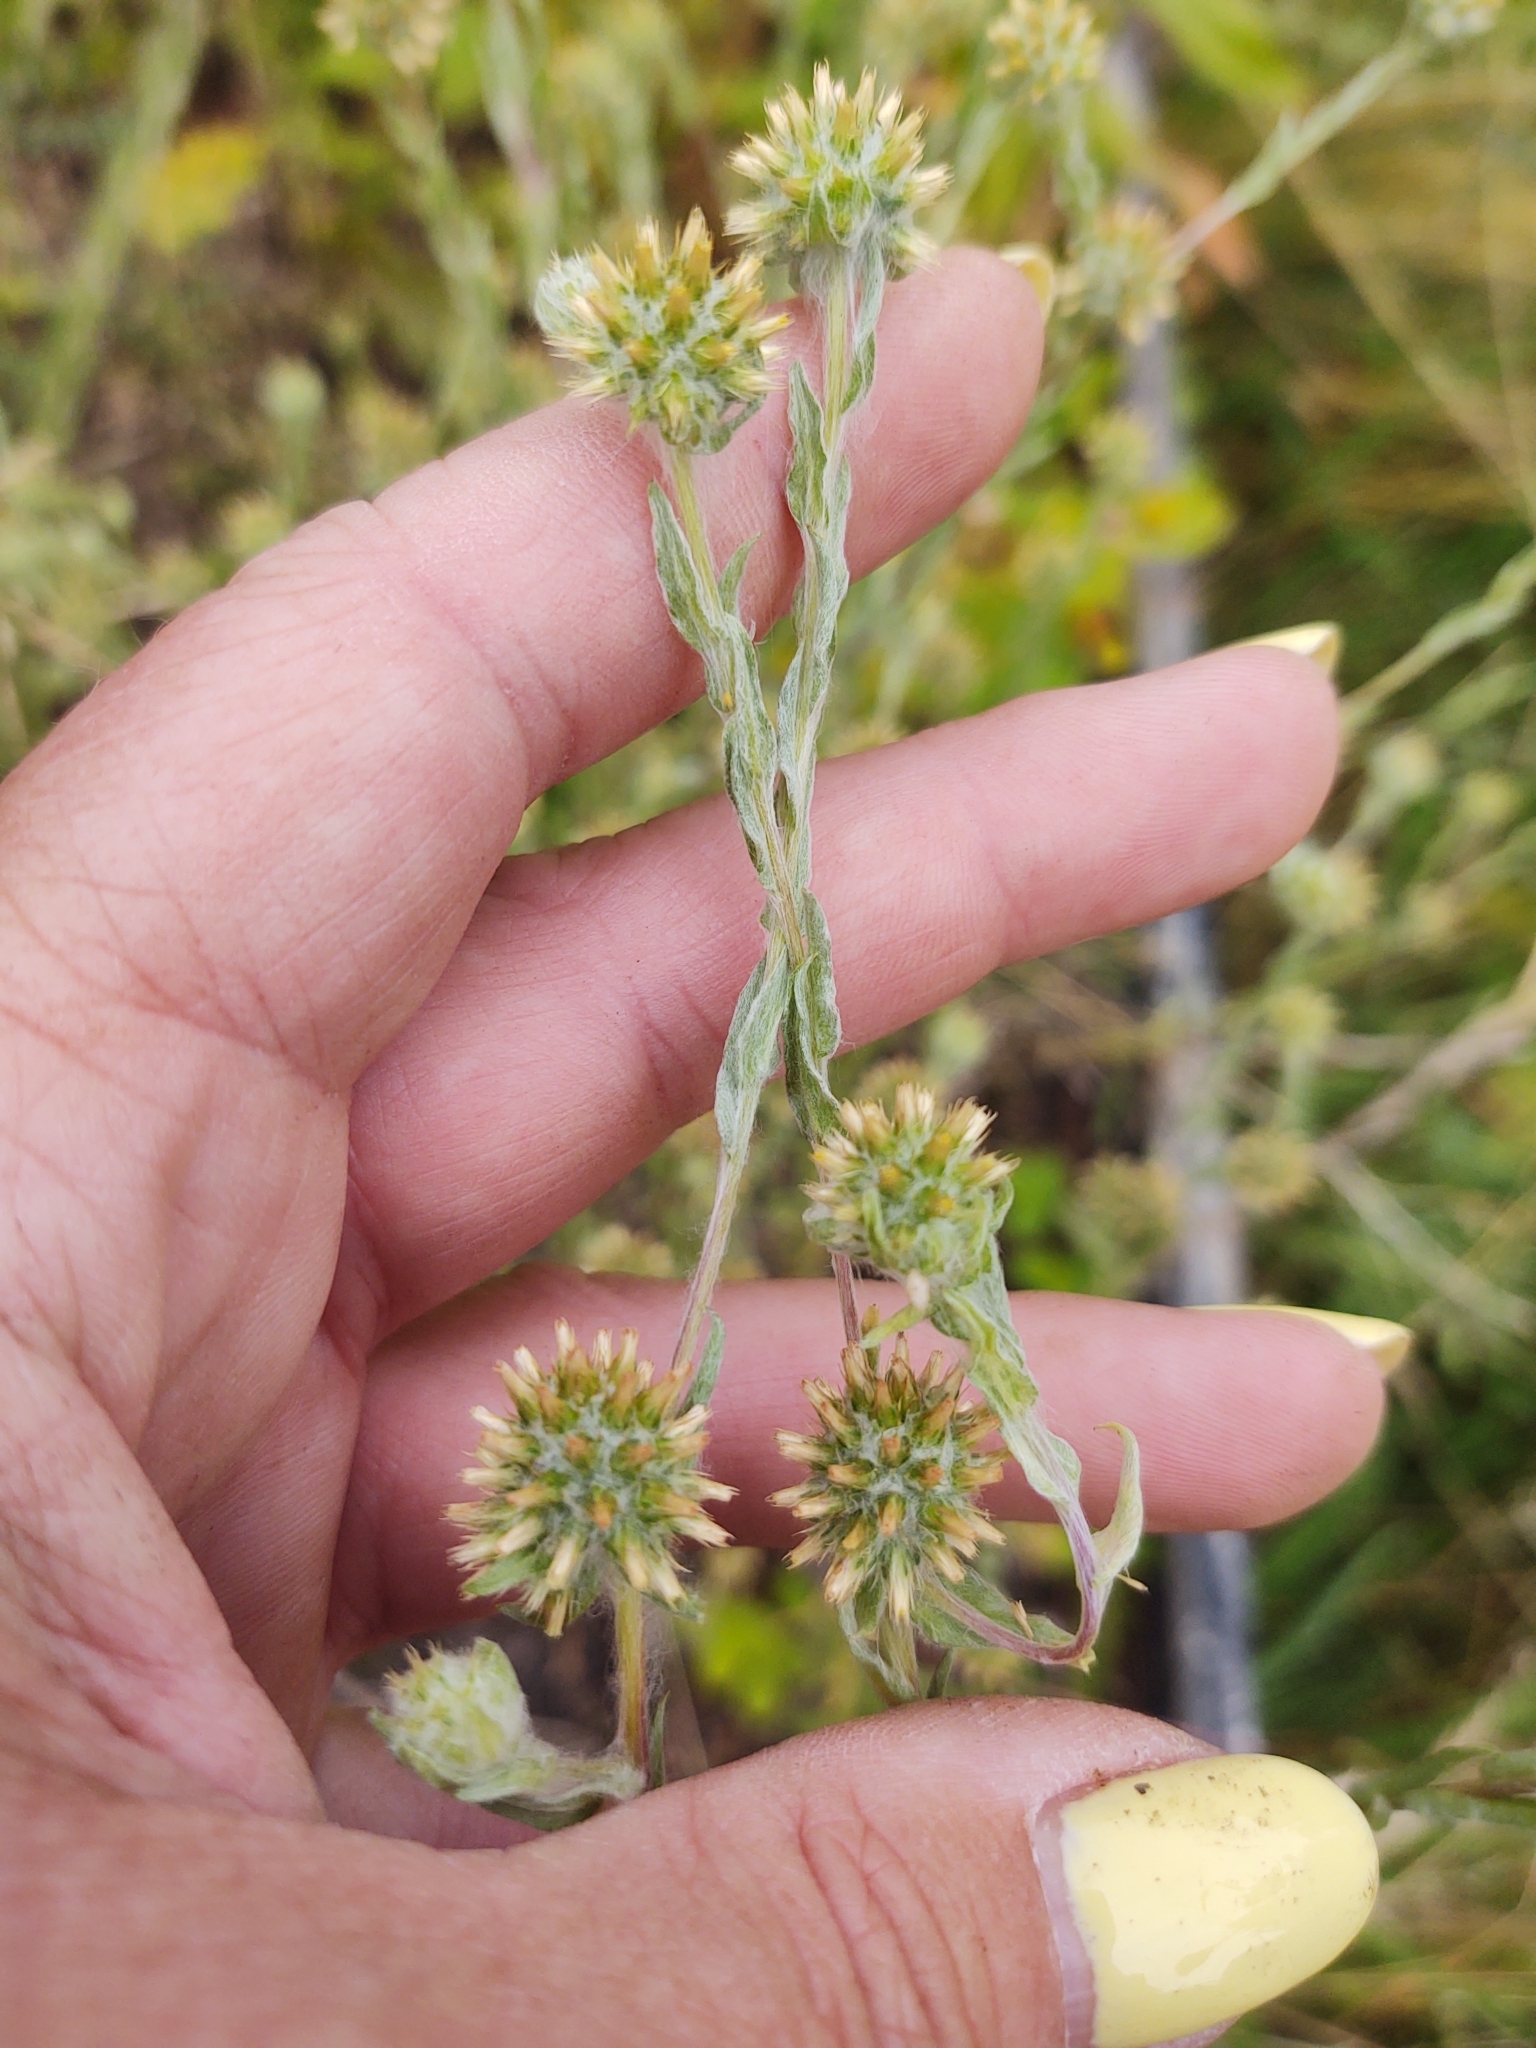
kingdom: Plantae
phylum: Tracheophyta
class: Magnoliopsida
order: Asterales
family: Asteraceae
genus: Filago
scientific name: Filago germanica
